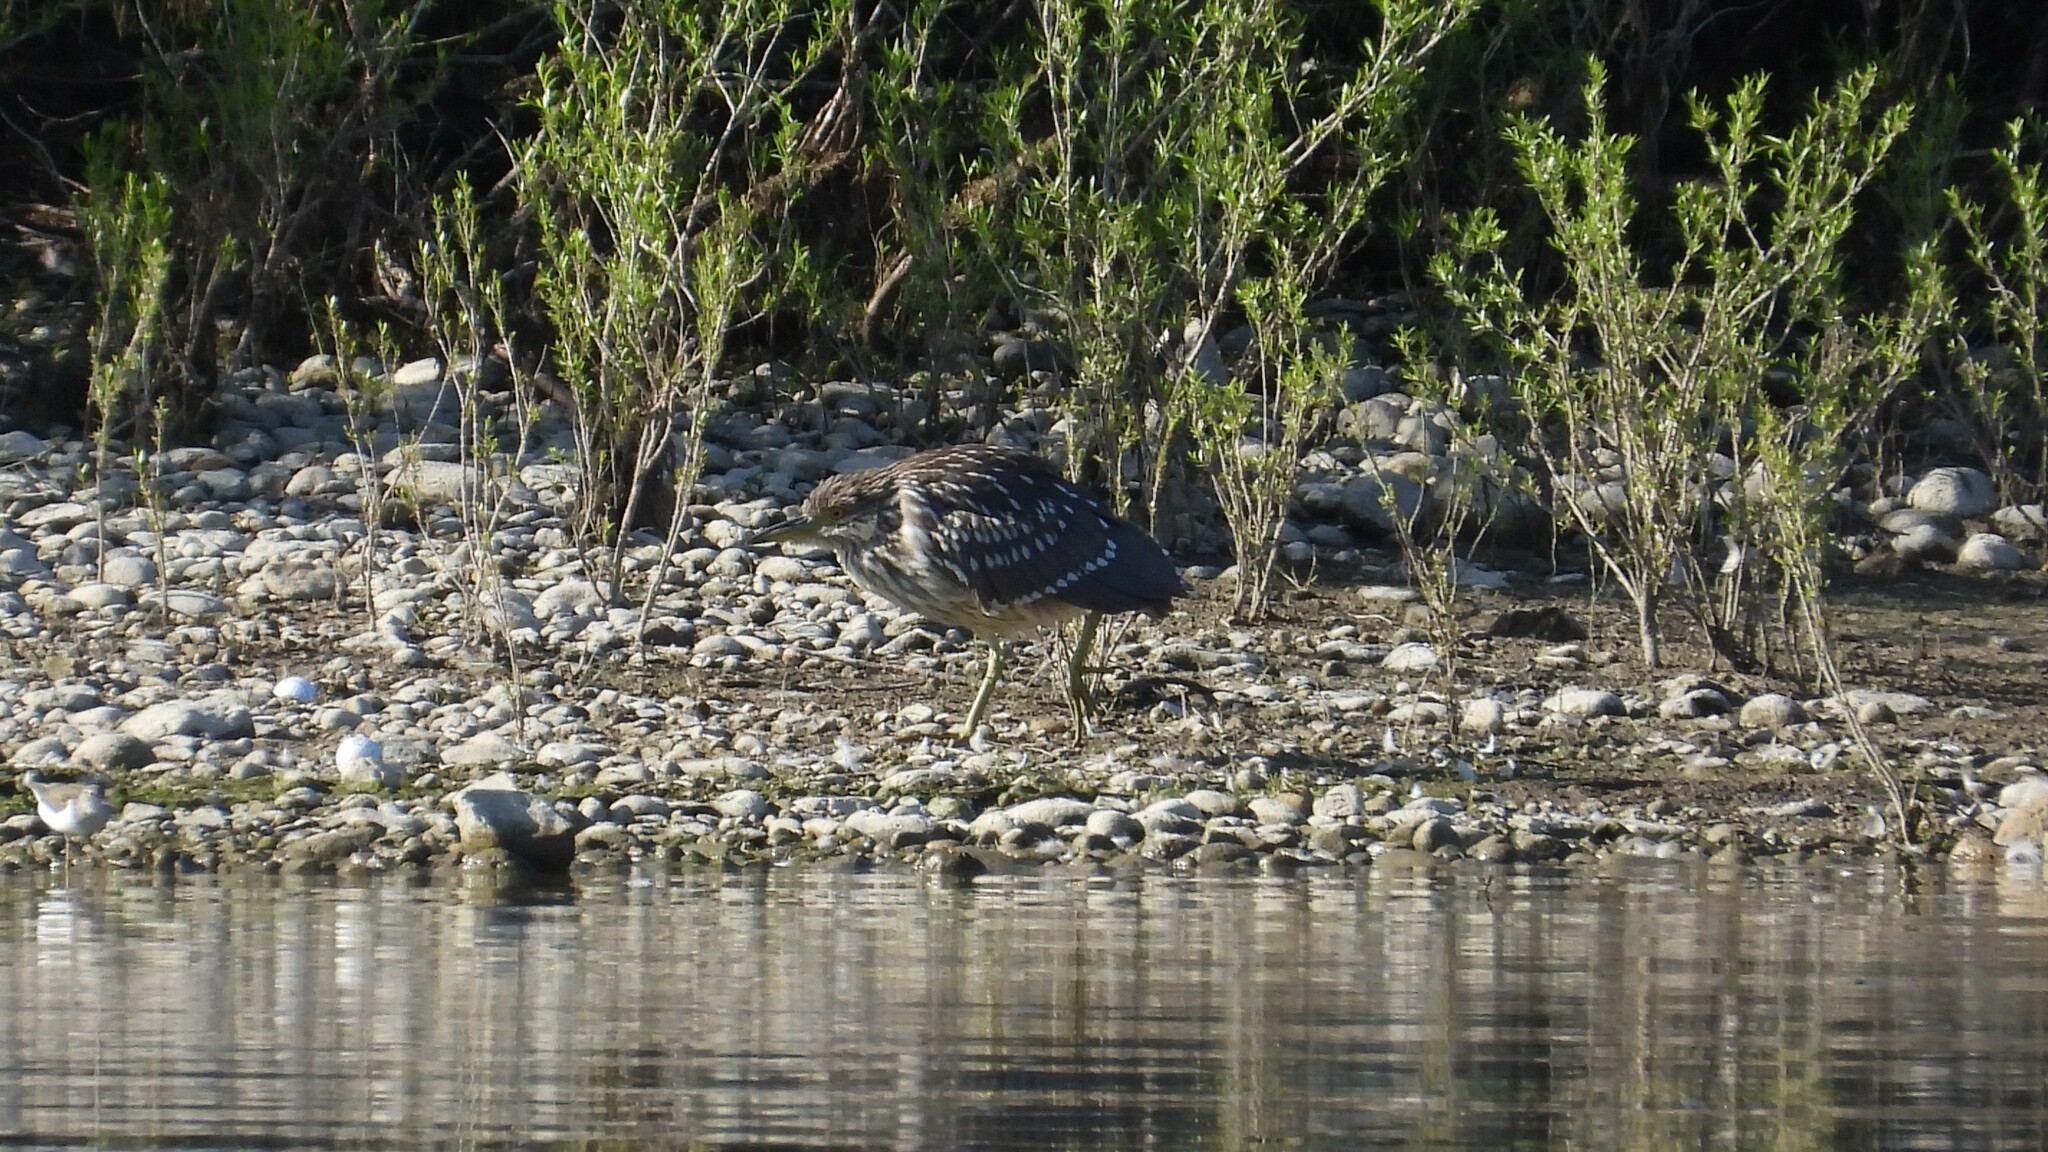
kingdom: Animalia
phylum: Chordata
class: Aves
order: Pelecaniformes
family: Ardeidae
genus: Nycticorax
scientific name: Nycticorax nycticorax
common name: Black-crowned night heron
